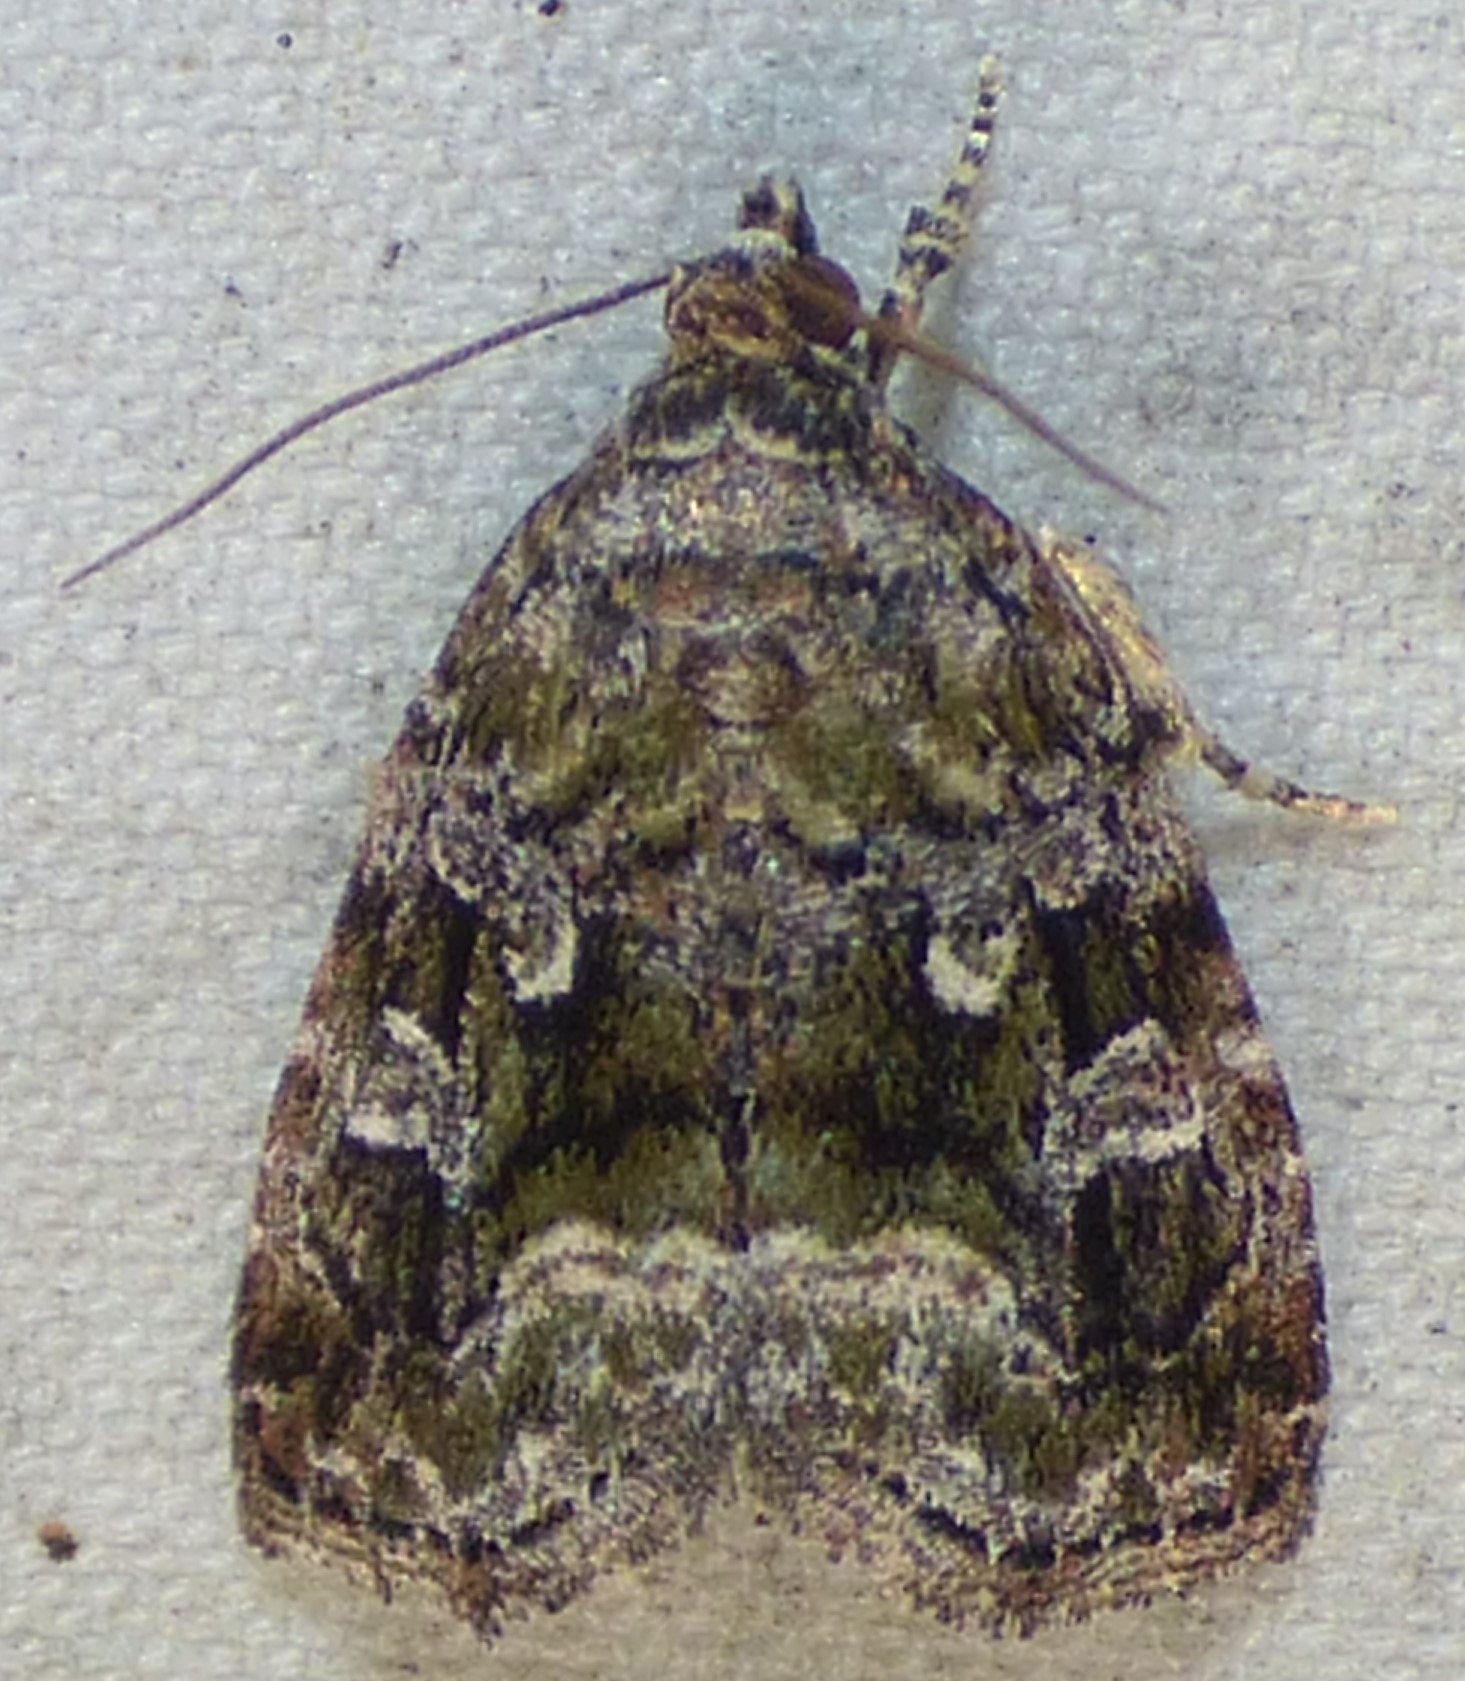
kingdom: Animalia
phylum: Arthropoda
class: Insecta
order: Lepidoptera
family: Noctuidae
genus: Protodeltote
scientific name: Protodeltote muscosula
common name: Large mossy glyph
